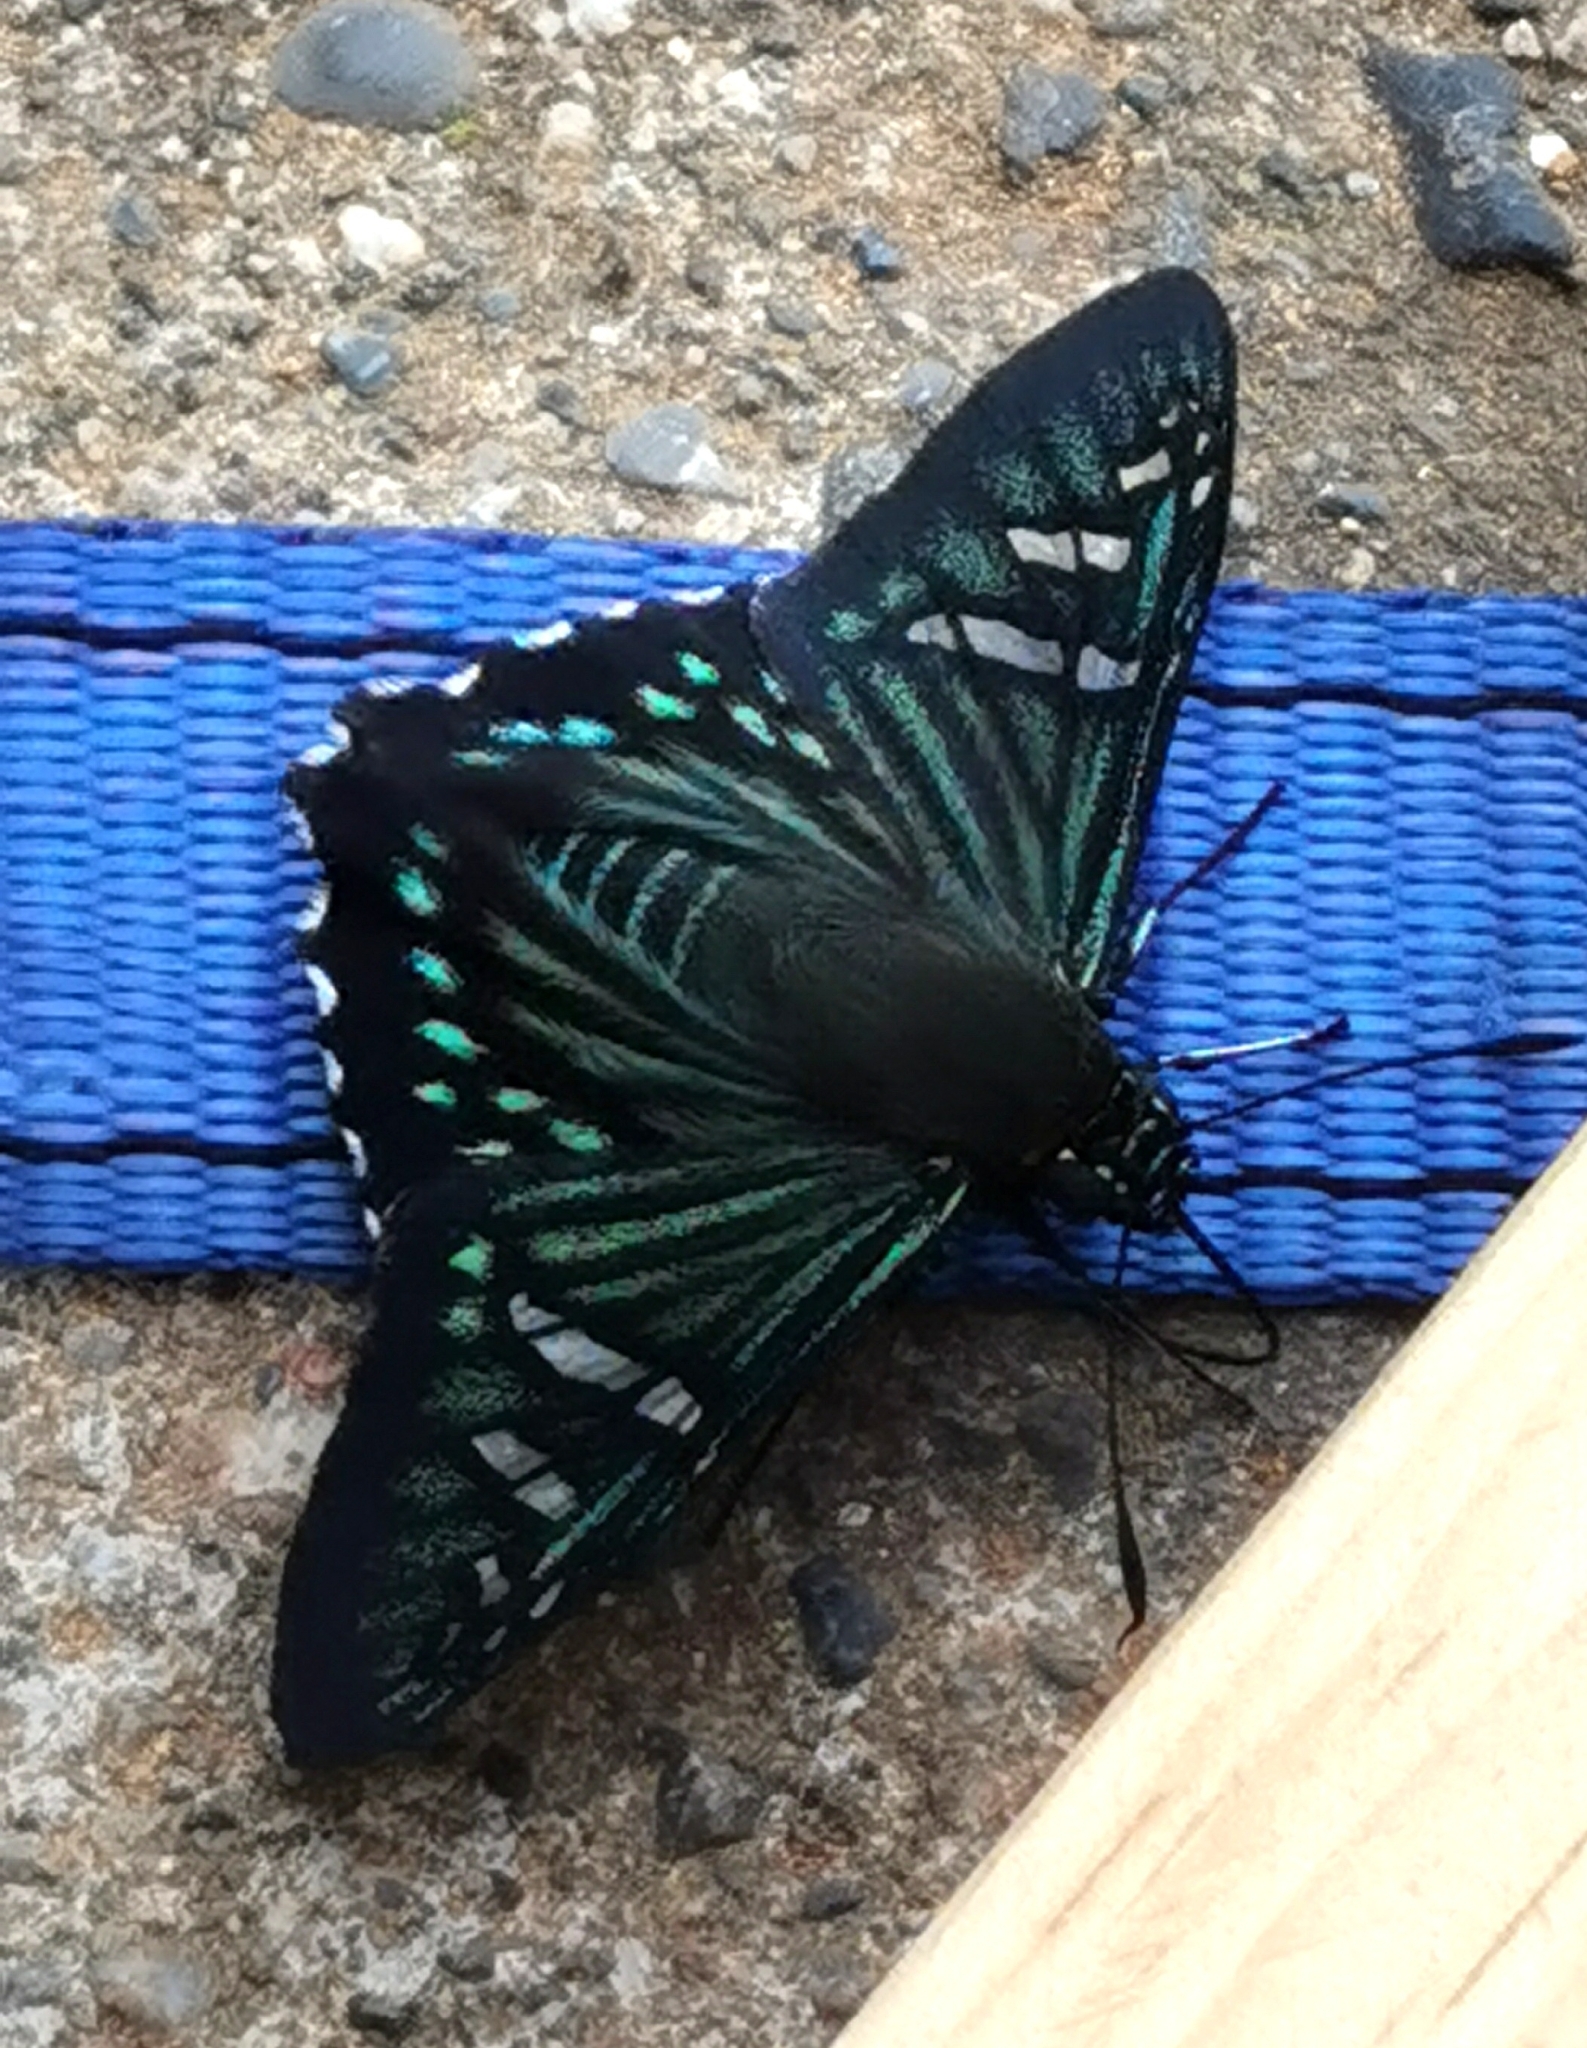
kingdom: Animalia
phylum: Arthropoda
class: Insecta
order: Lepidoptera
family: Hesperiidae
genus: Phocides
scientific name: Phocides urania
